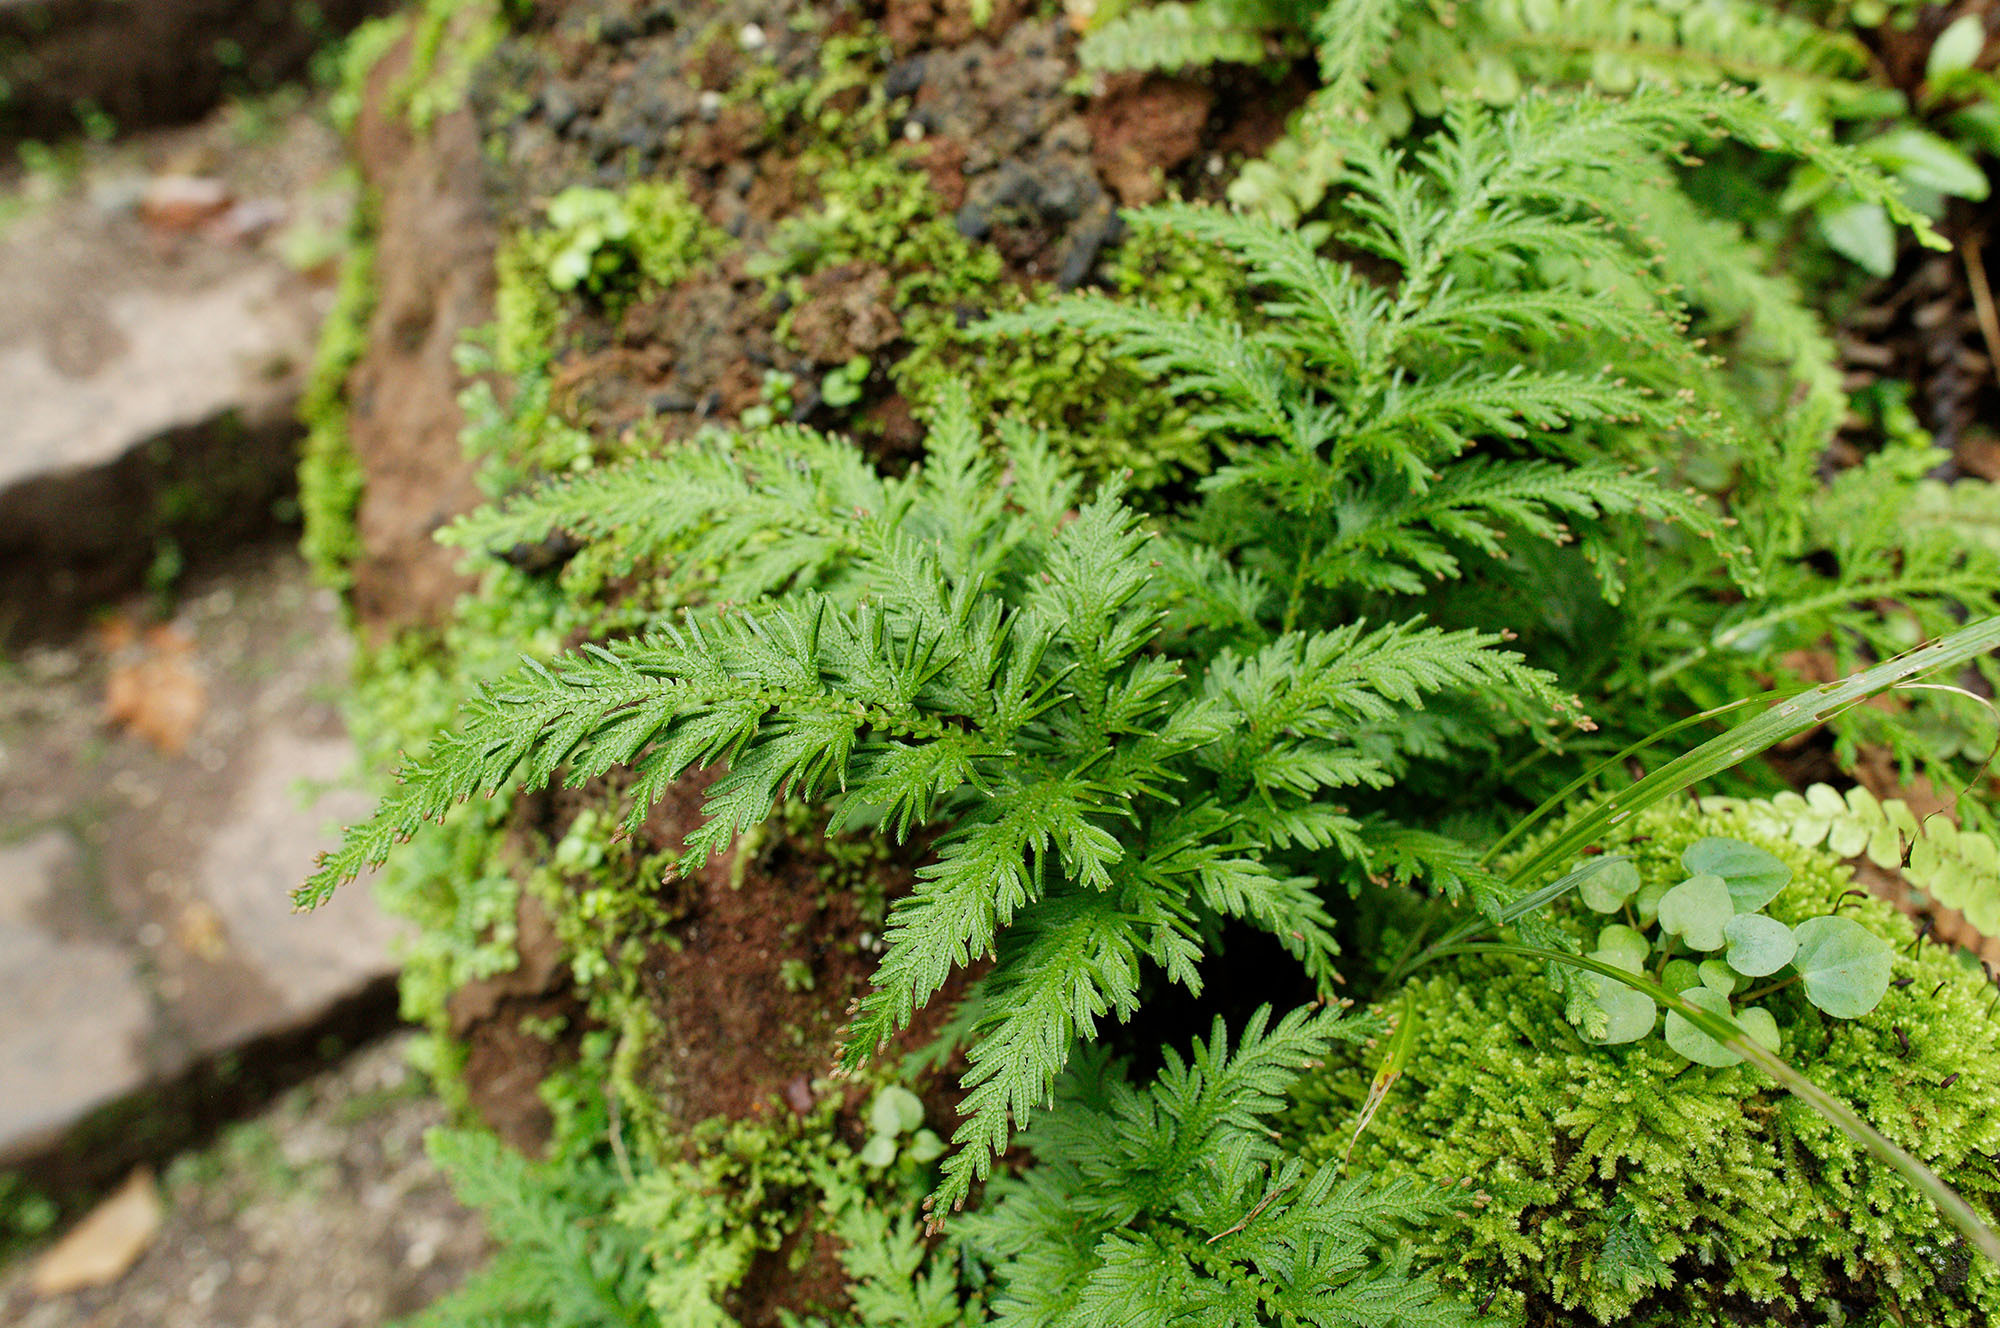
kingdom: Plantae
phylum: Tracheophyta
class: Lycopodiopsida
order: Selaginellales
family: Selaginellaceae
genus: Selaginella
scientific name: Selaginella moellendorffii
